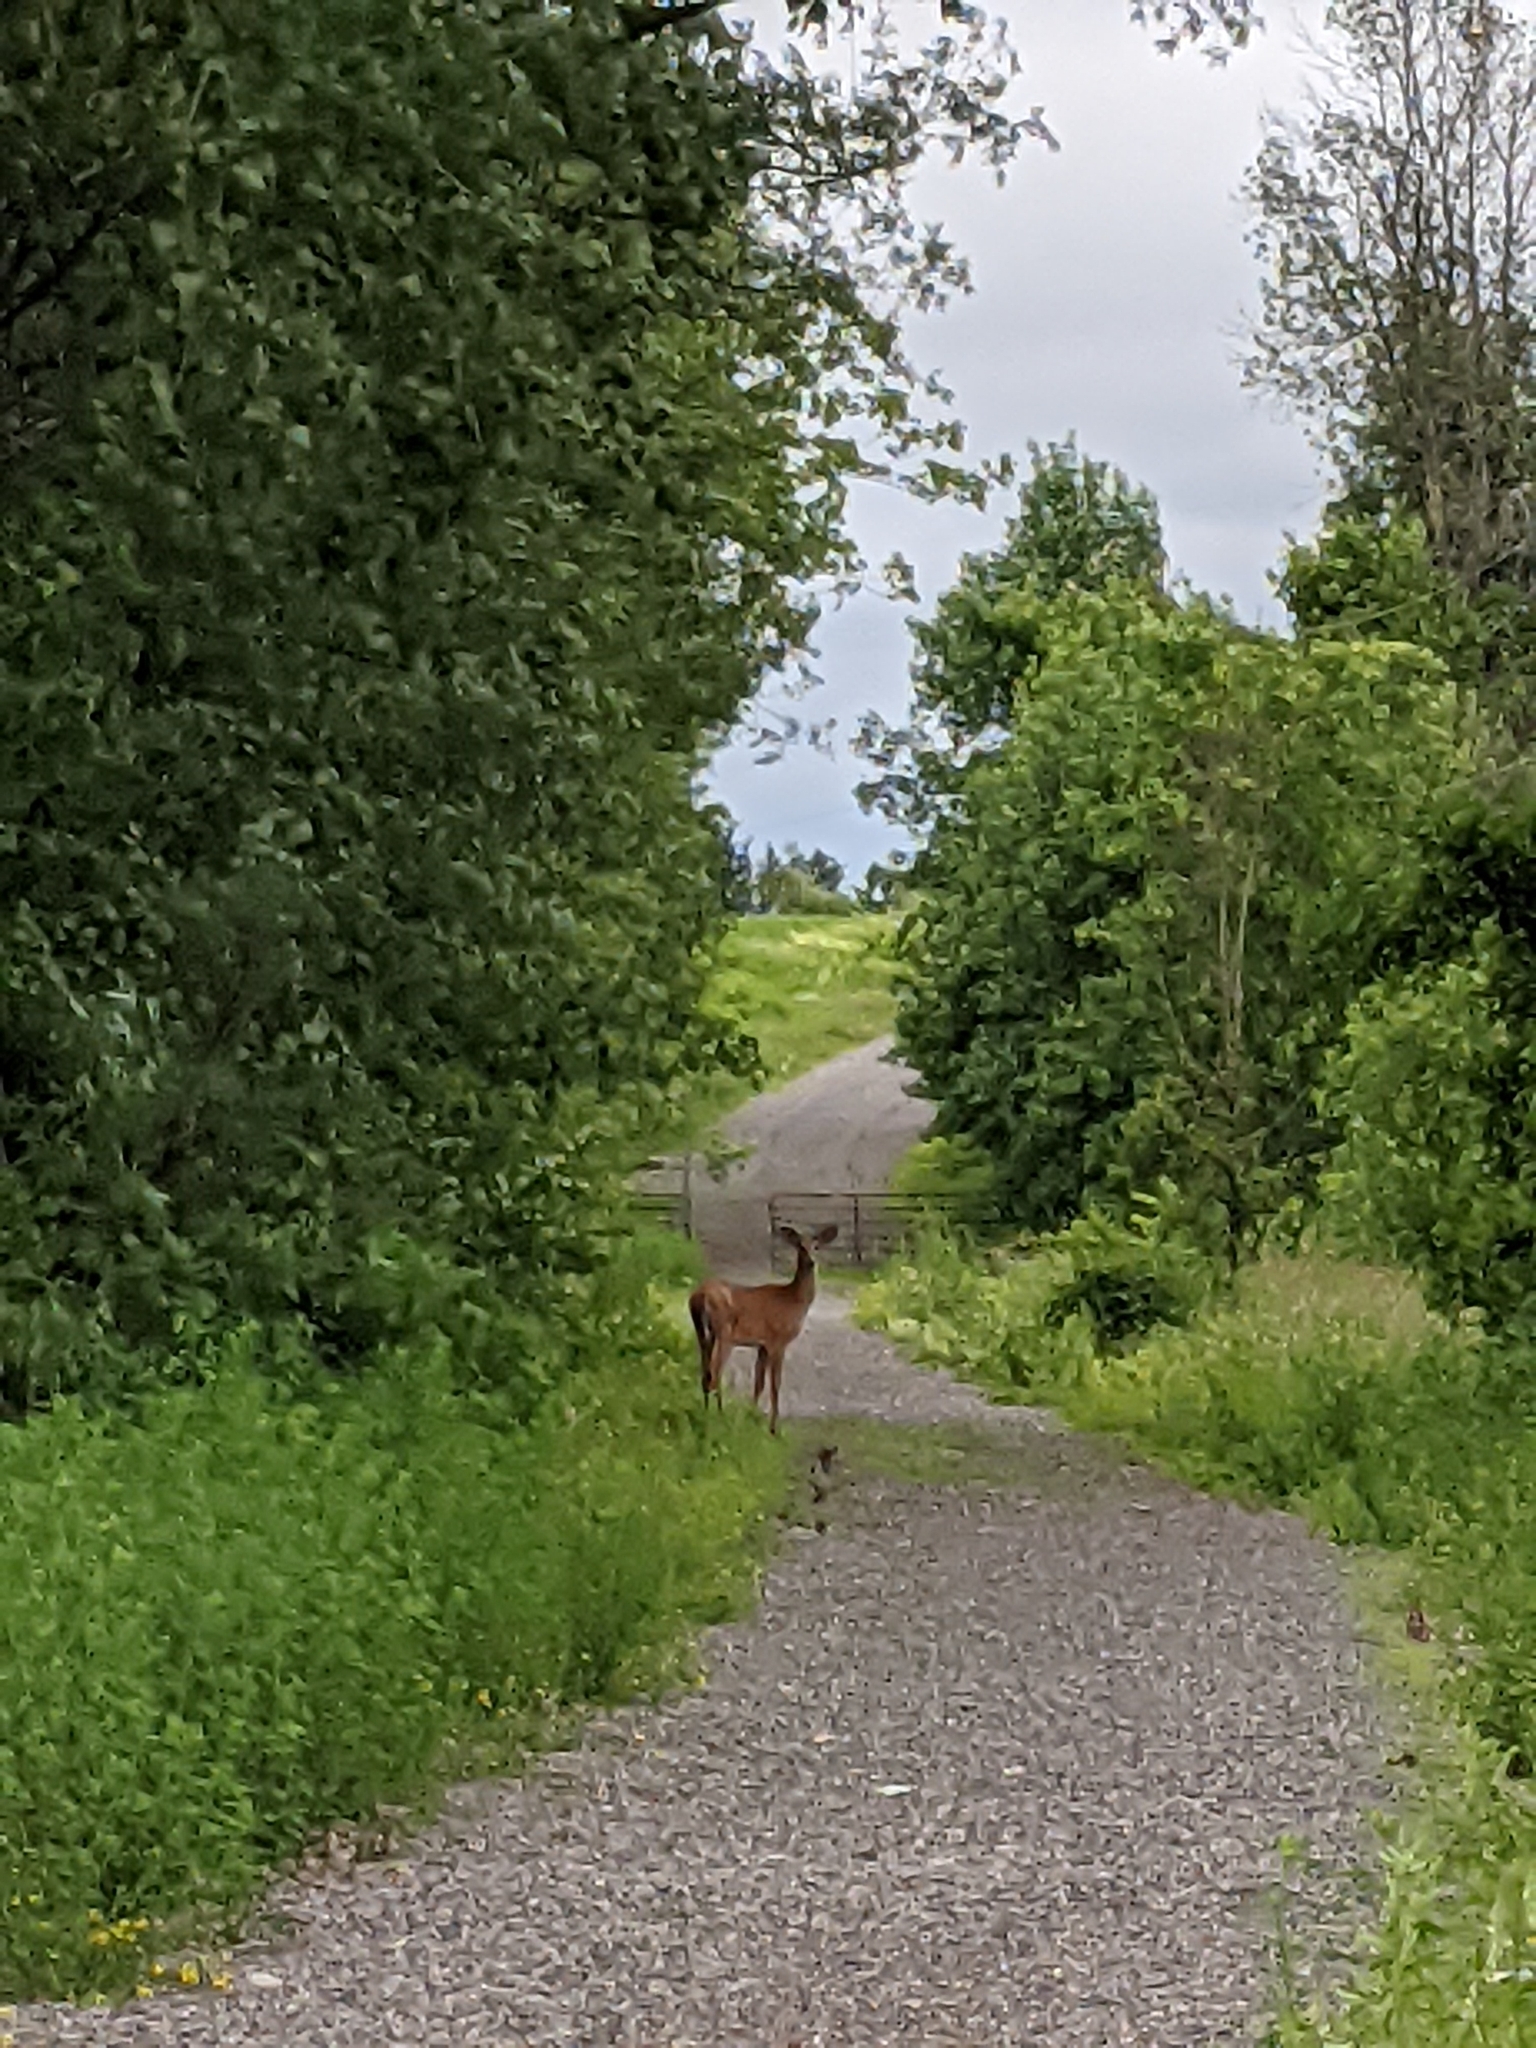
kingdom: Animalia
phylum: Chordata
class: Mammalia
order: Artiodactyla
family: Cervidae
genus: Odocoileus
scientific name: Odocoileus virginianus
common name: White-tailed deer
